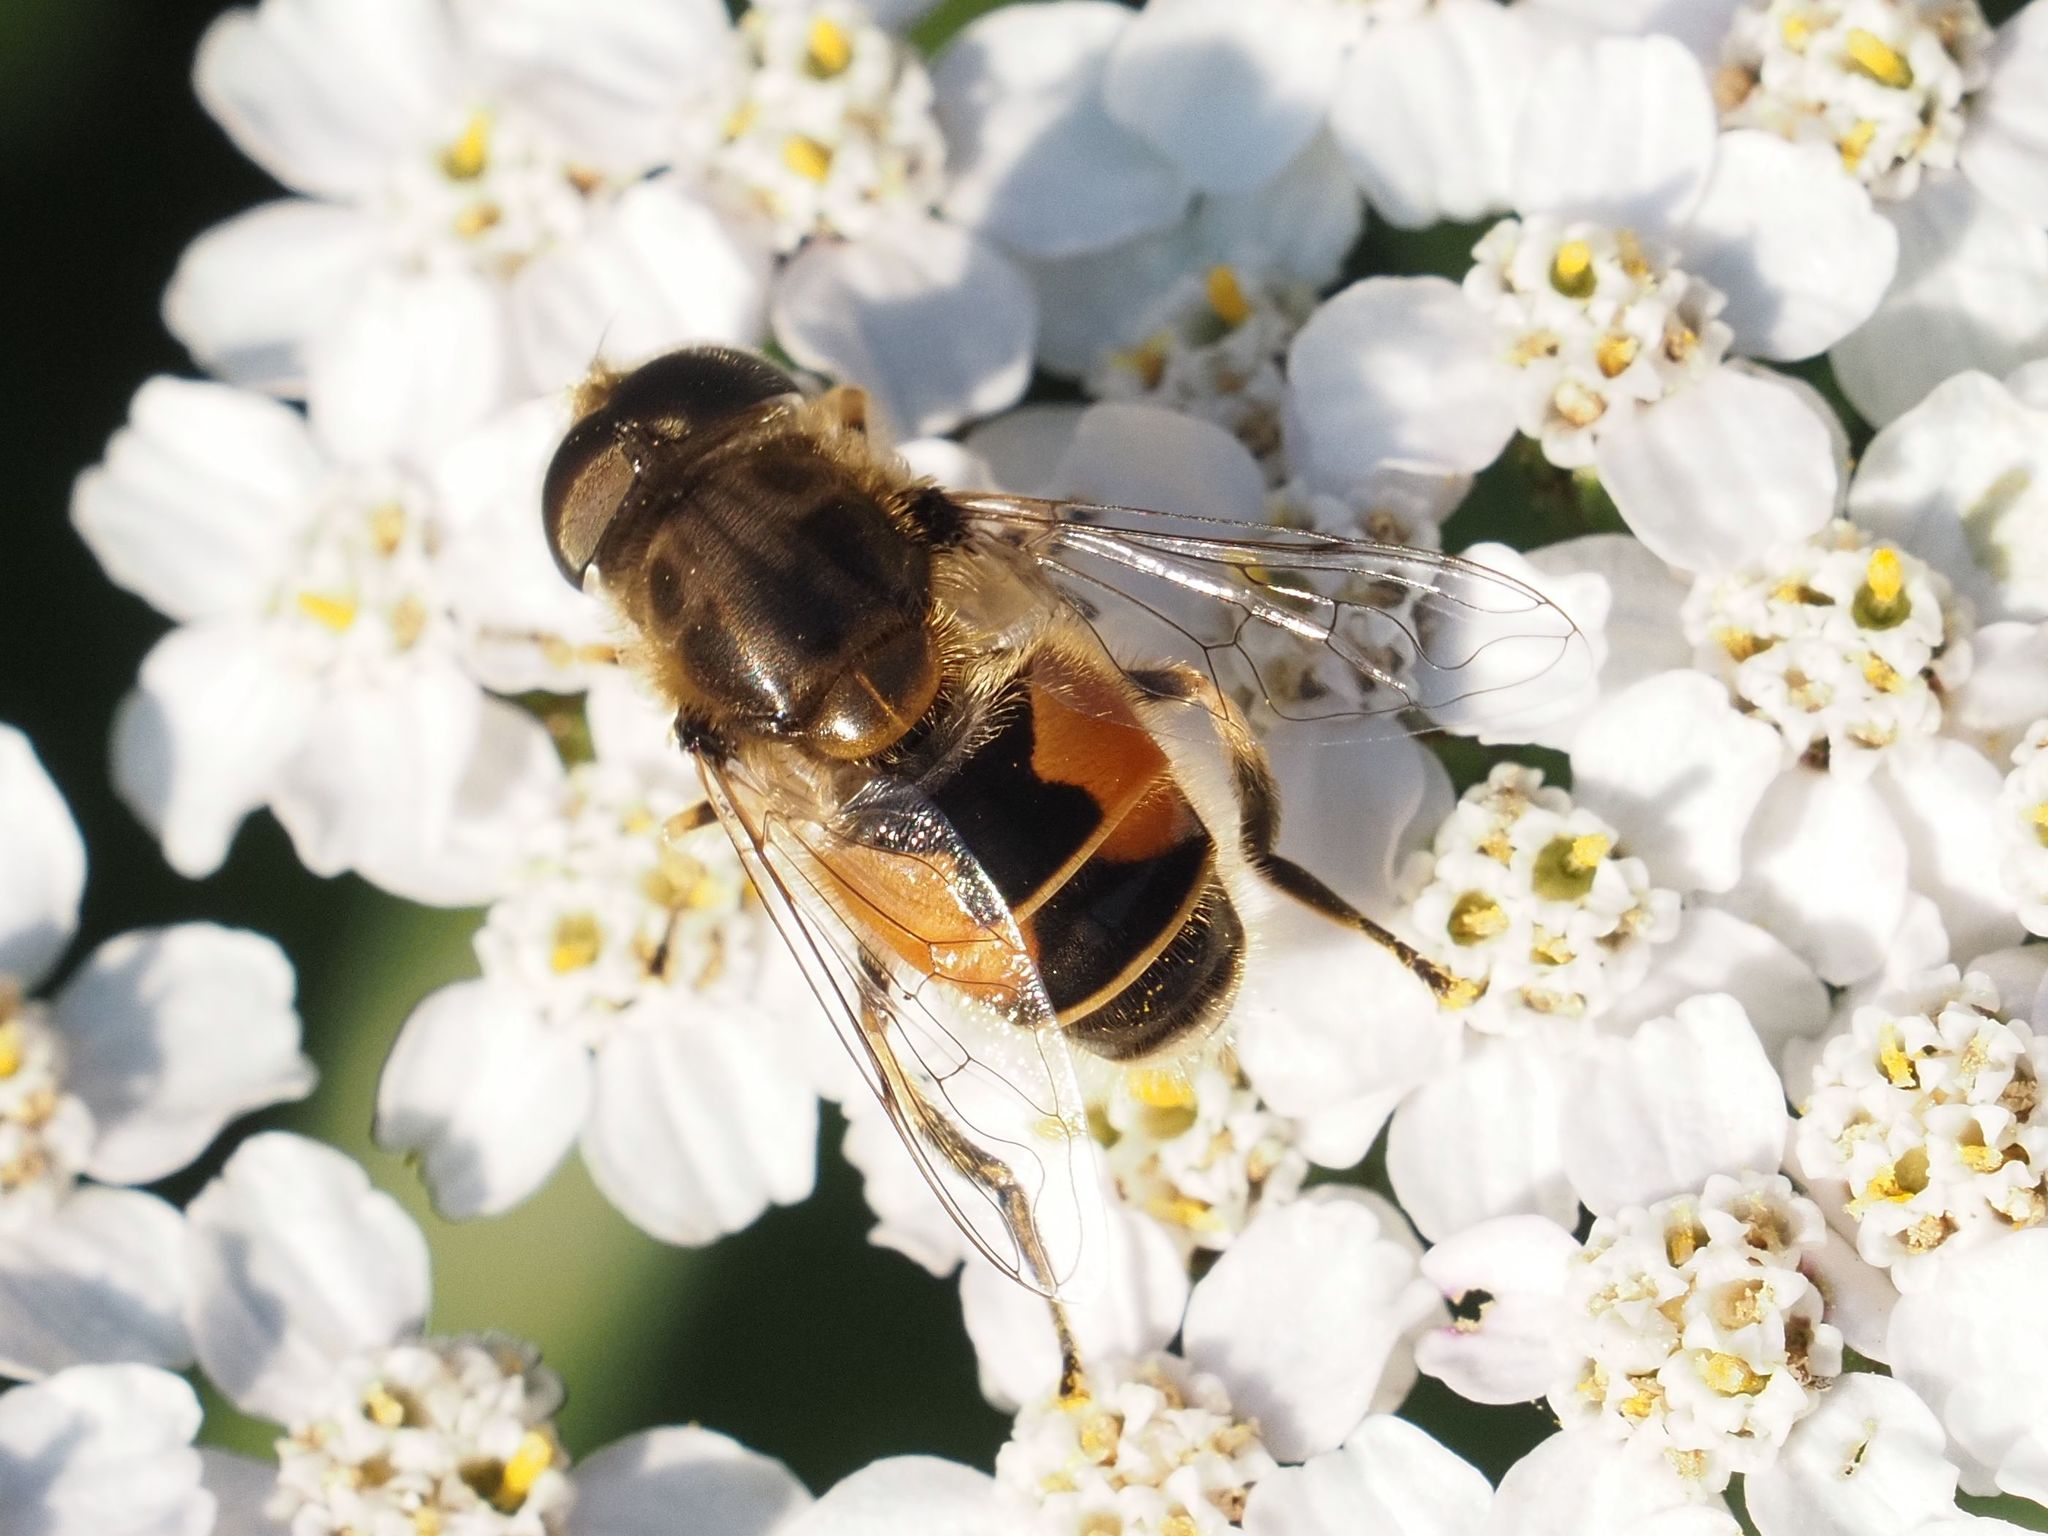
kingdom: Animalia
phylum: Arthropoda
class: Insecta
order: Diptera
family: Syrphidae
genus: Eristalis
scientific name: Eristalis arbustorum
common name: Hover fly
